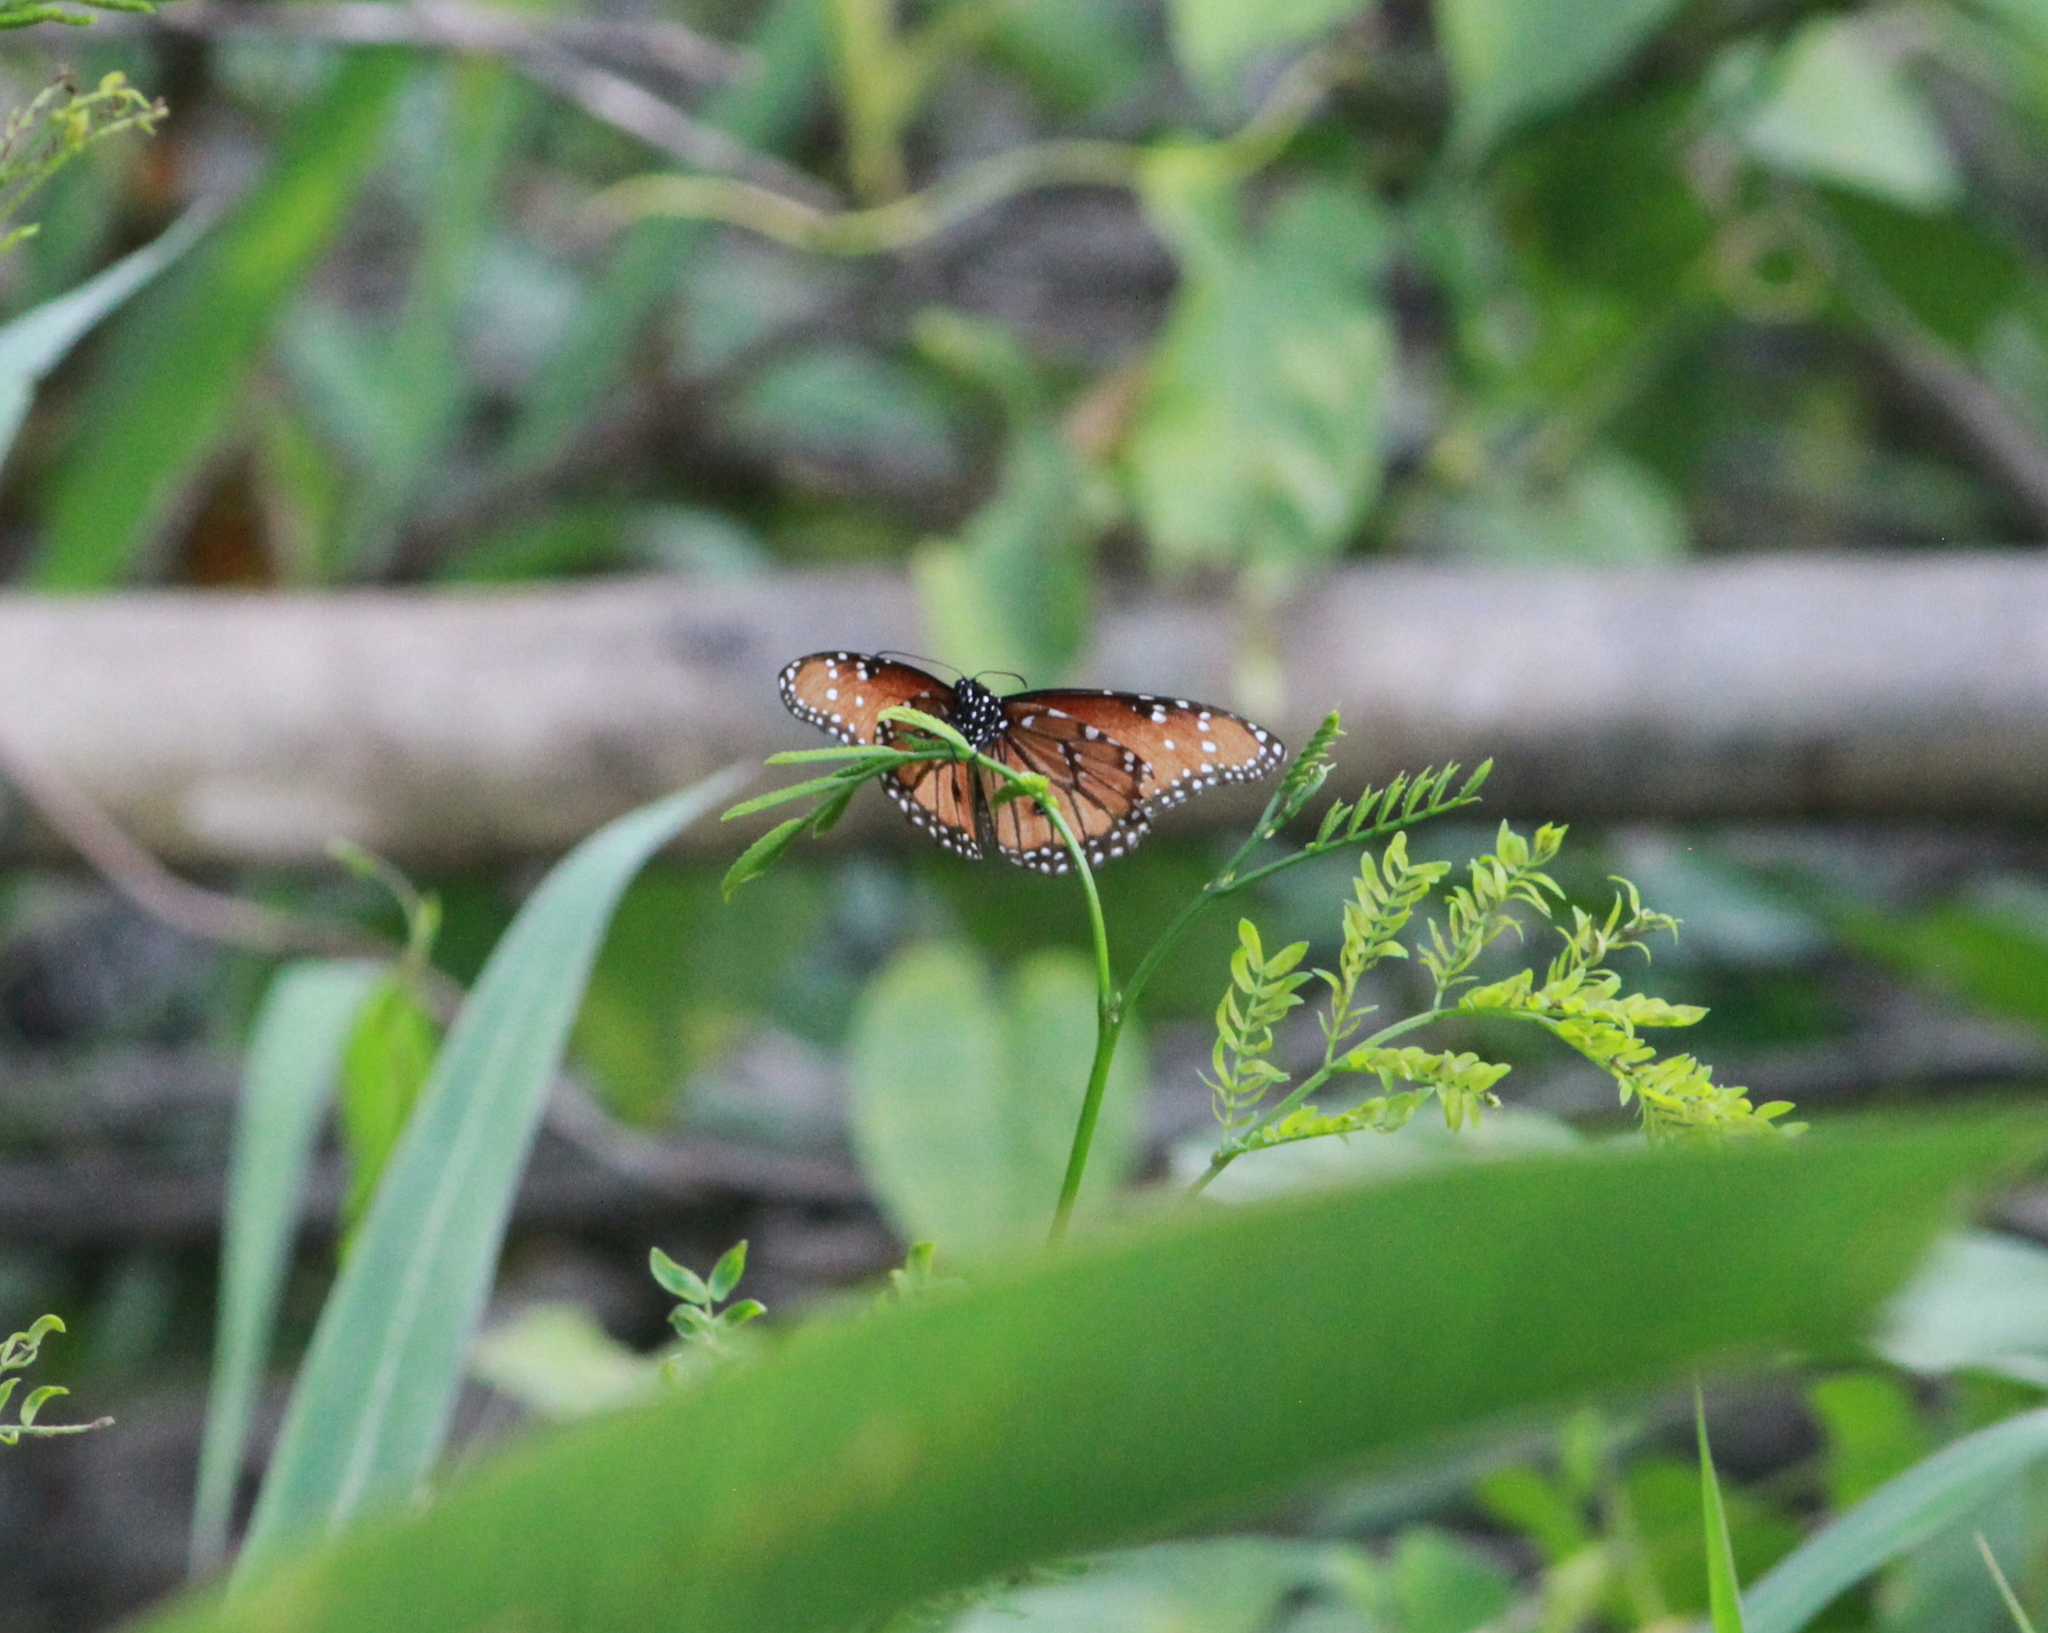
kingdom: Animalia
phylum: Arthropoda
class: Insecta
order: Lepidoptera
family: Nymphalidae
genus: Danaus
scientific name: Danaus gilippus
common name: Queen
